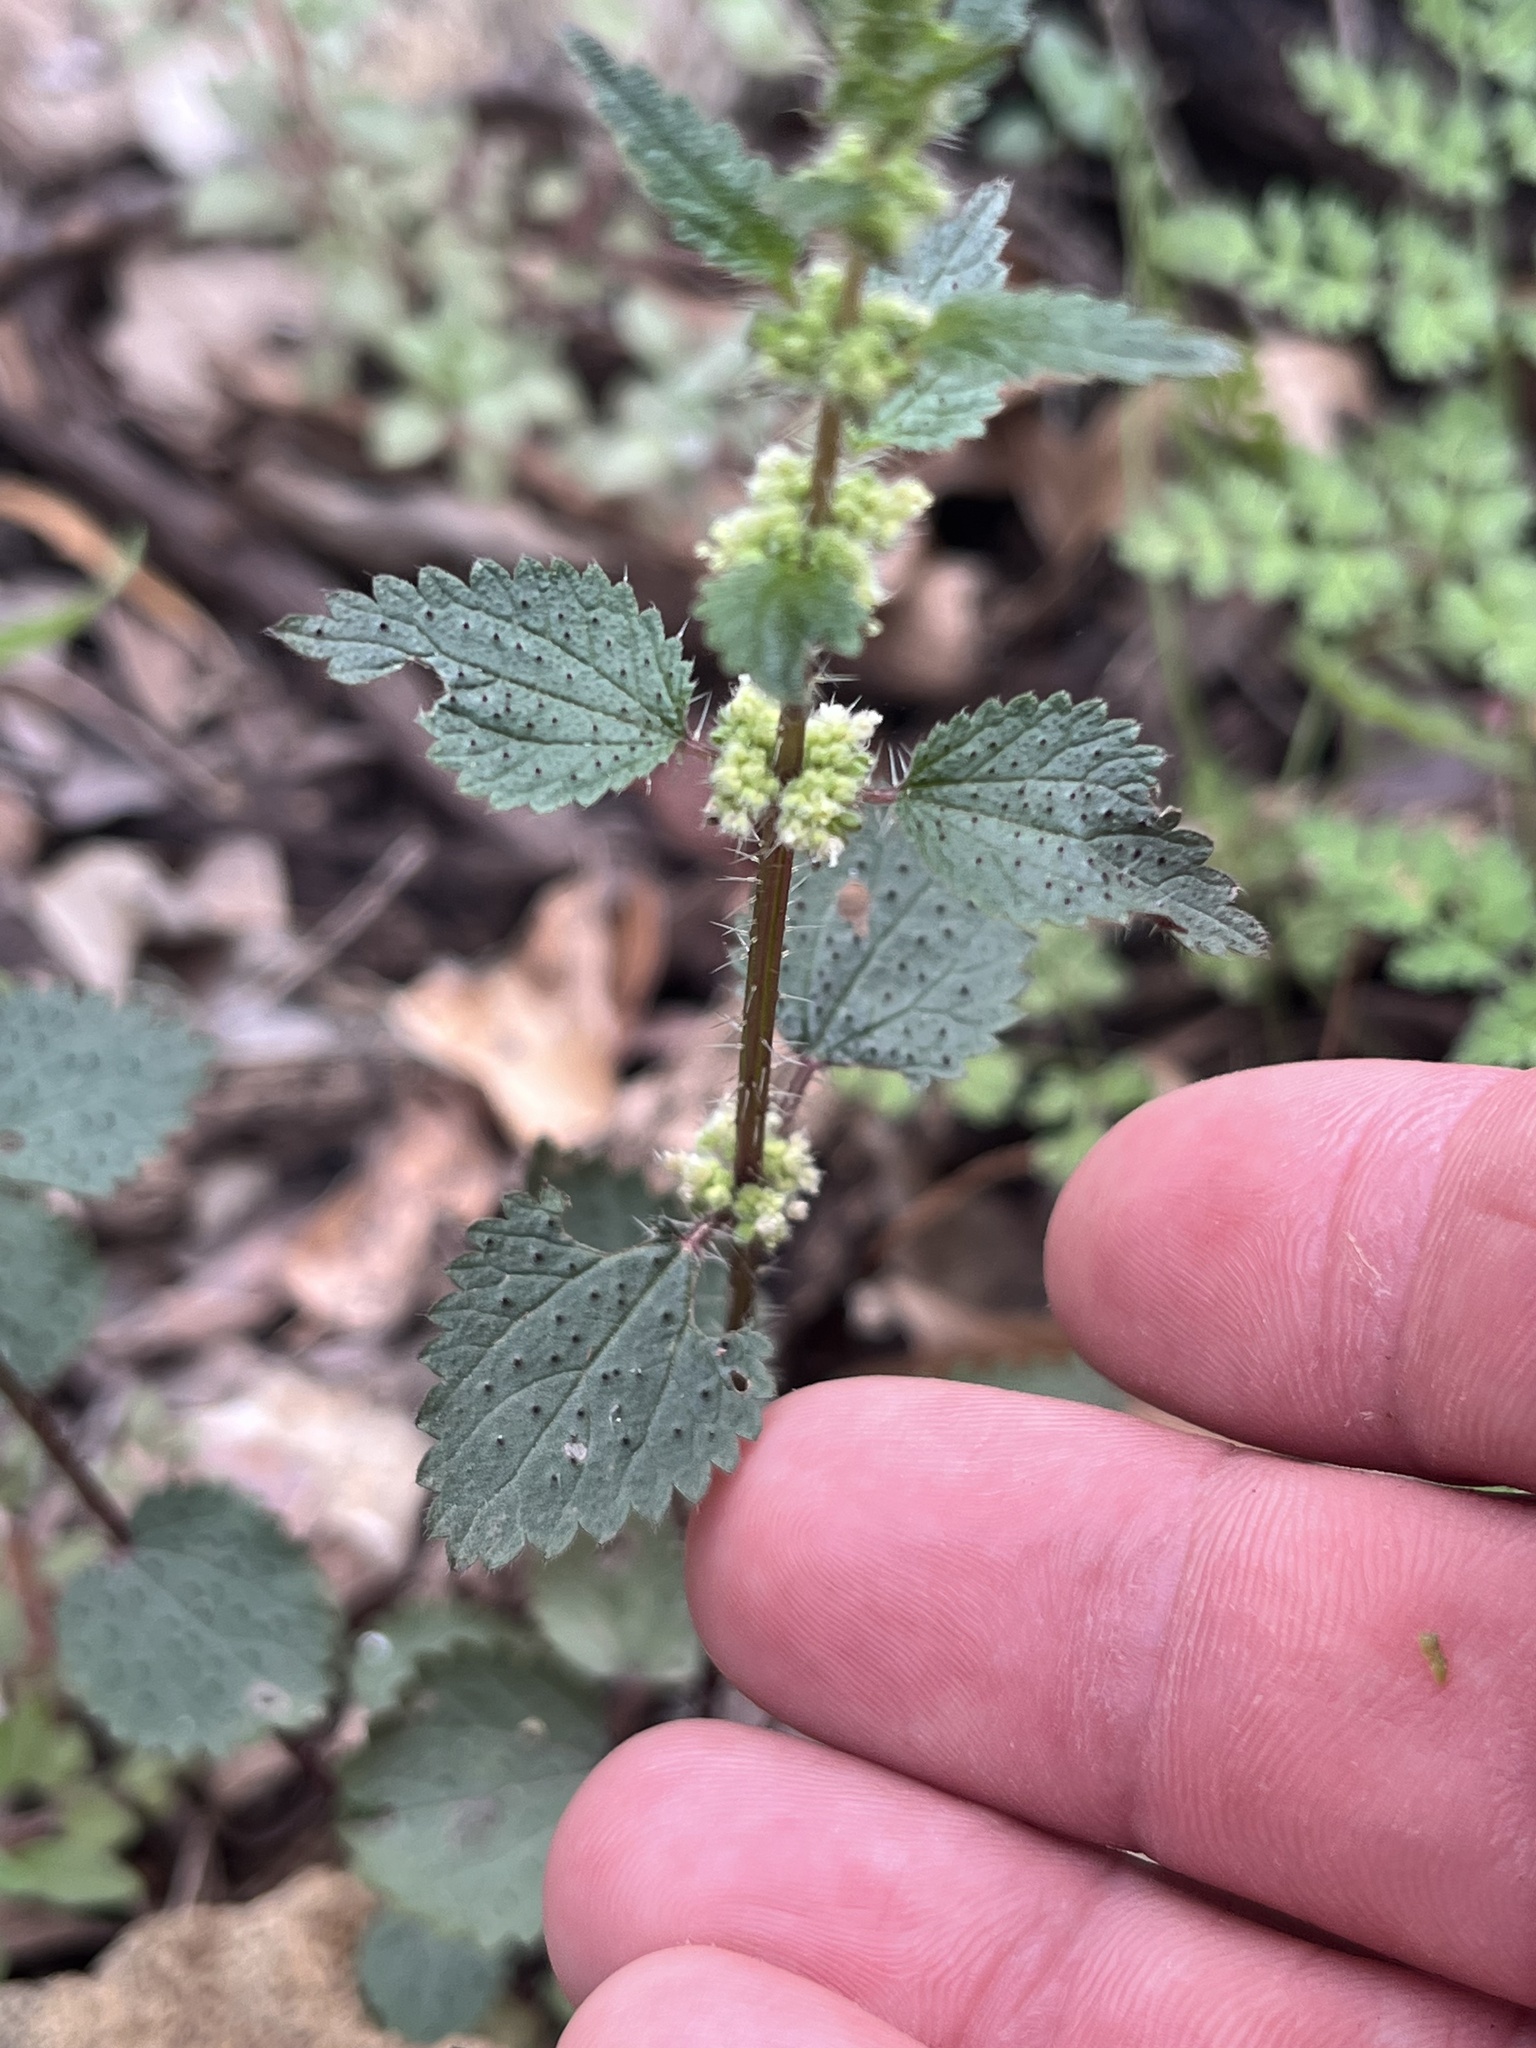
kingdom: Plantae
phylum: Tracheophyta
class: Magnoliopsida
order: Rosales
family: Urticaceae
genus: Urtica
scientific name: Urtica chamaedryoides
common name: Heart-leaf nettle
